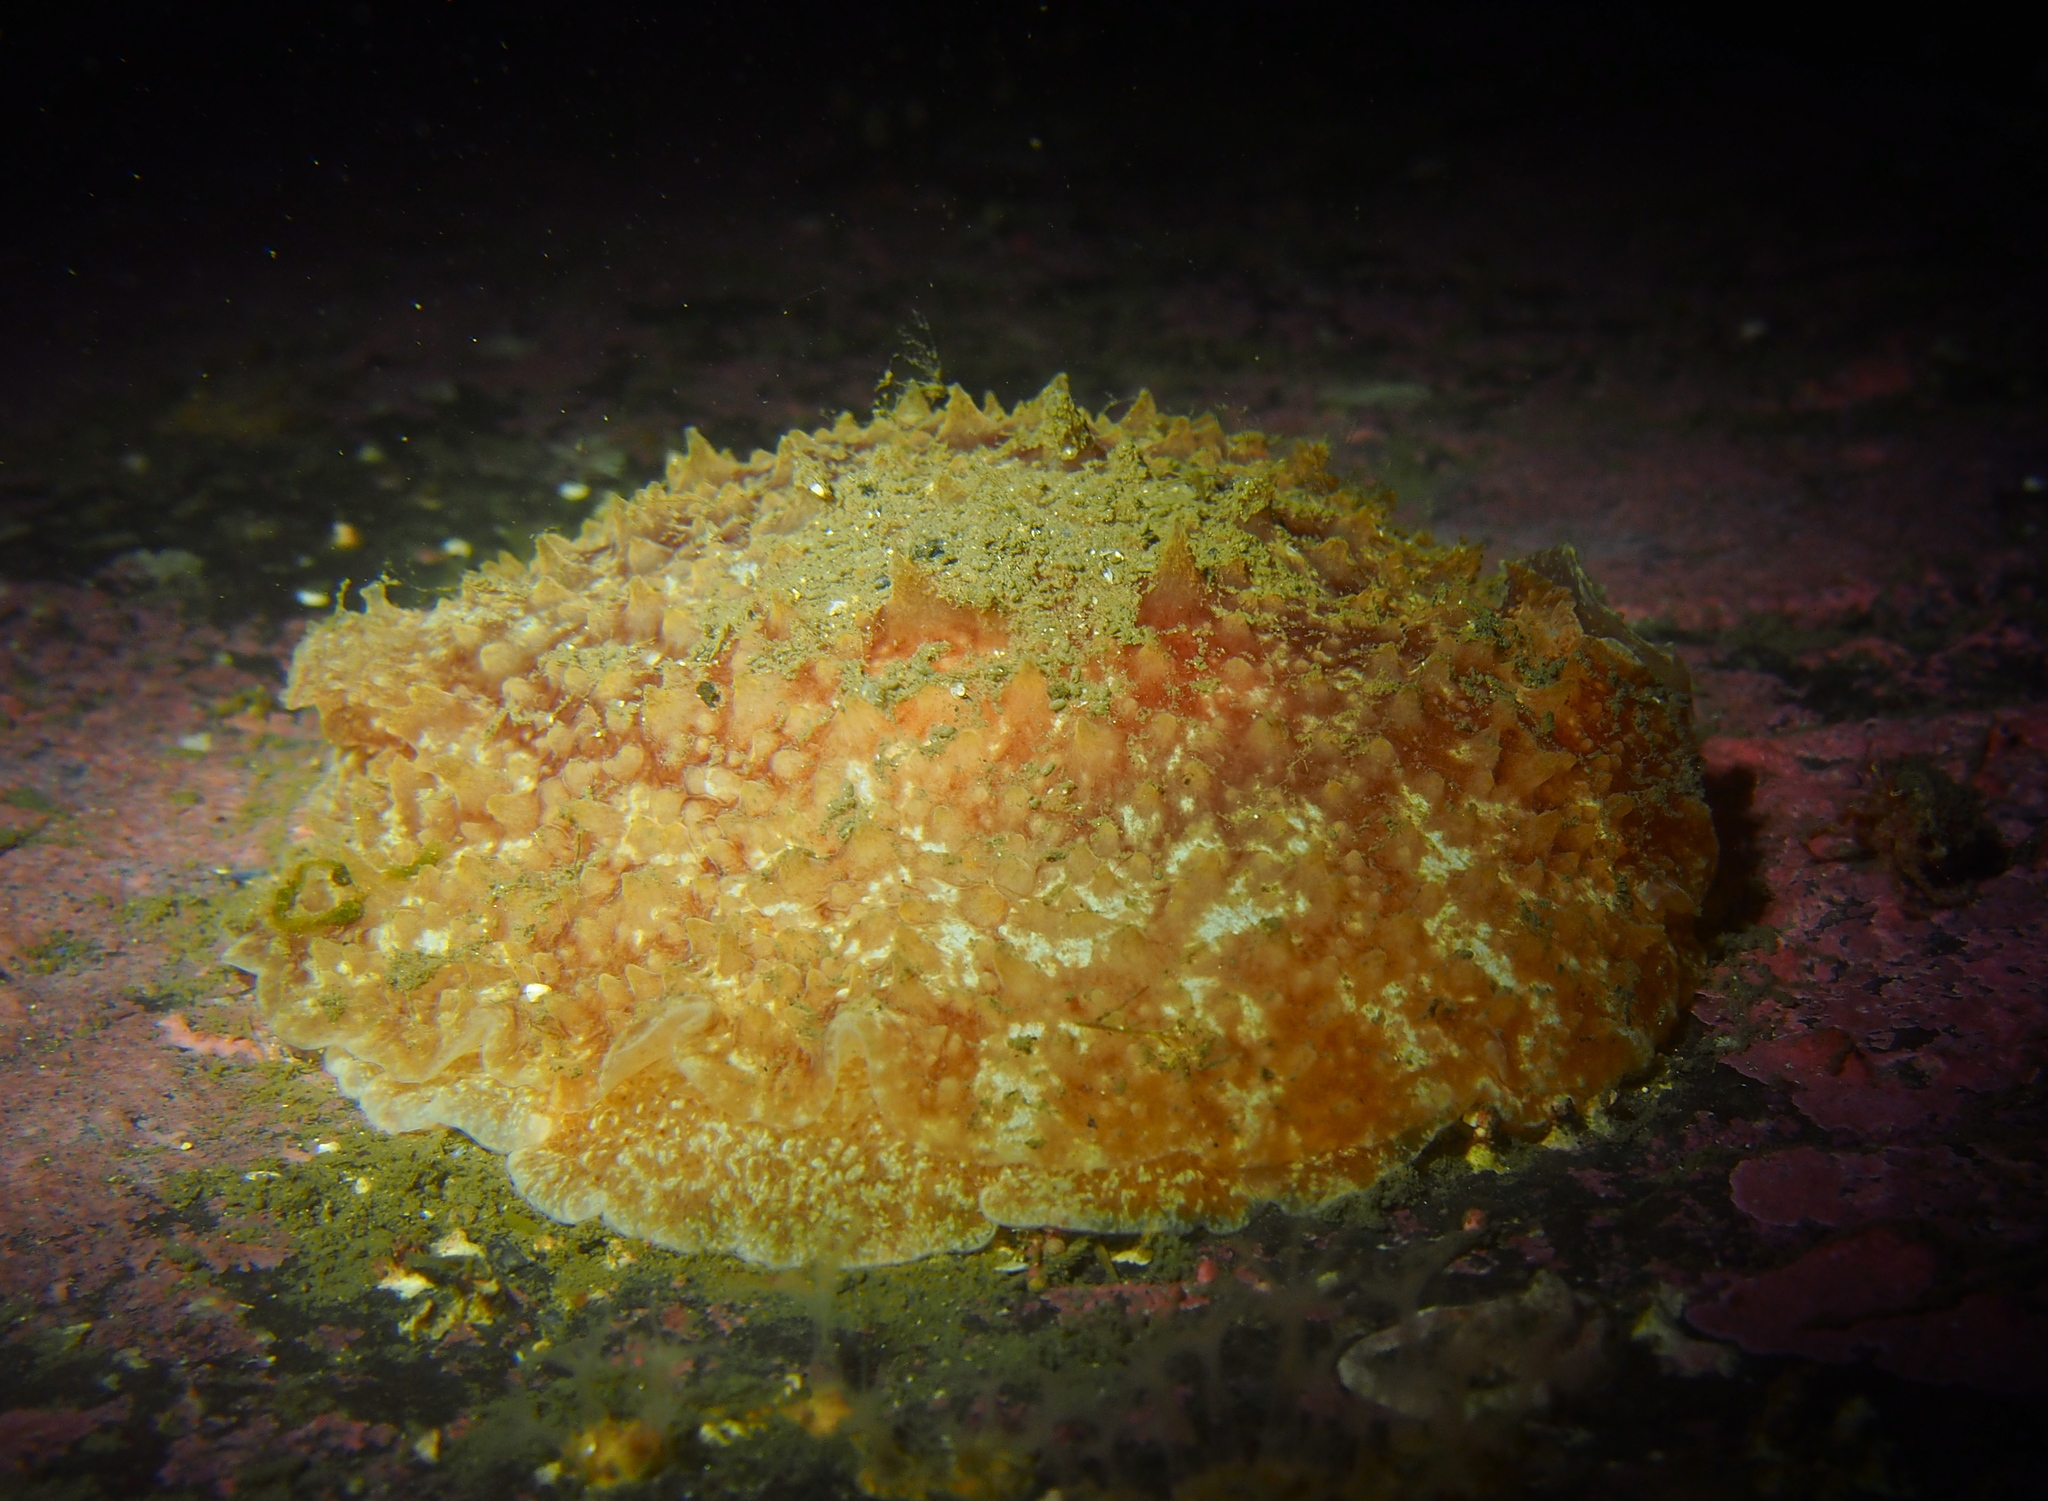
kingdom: Animalia
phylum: Mollusca
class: Gastropoda
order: Pleurobranchida
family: Pleurobranchidae
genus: Pleurobranchus
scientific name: Pleurobranchus membranaceus
